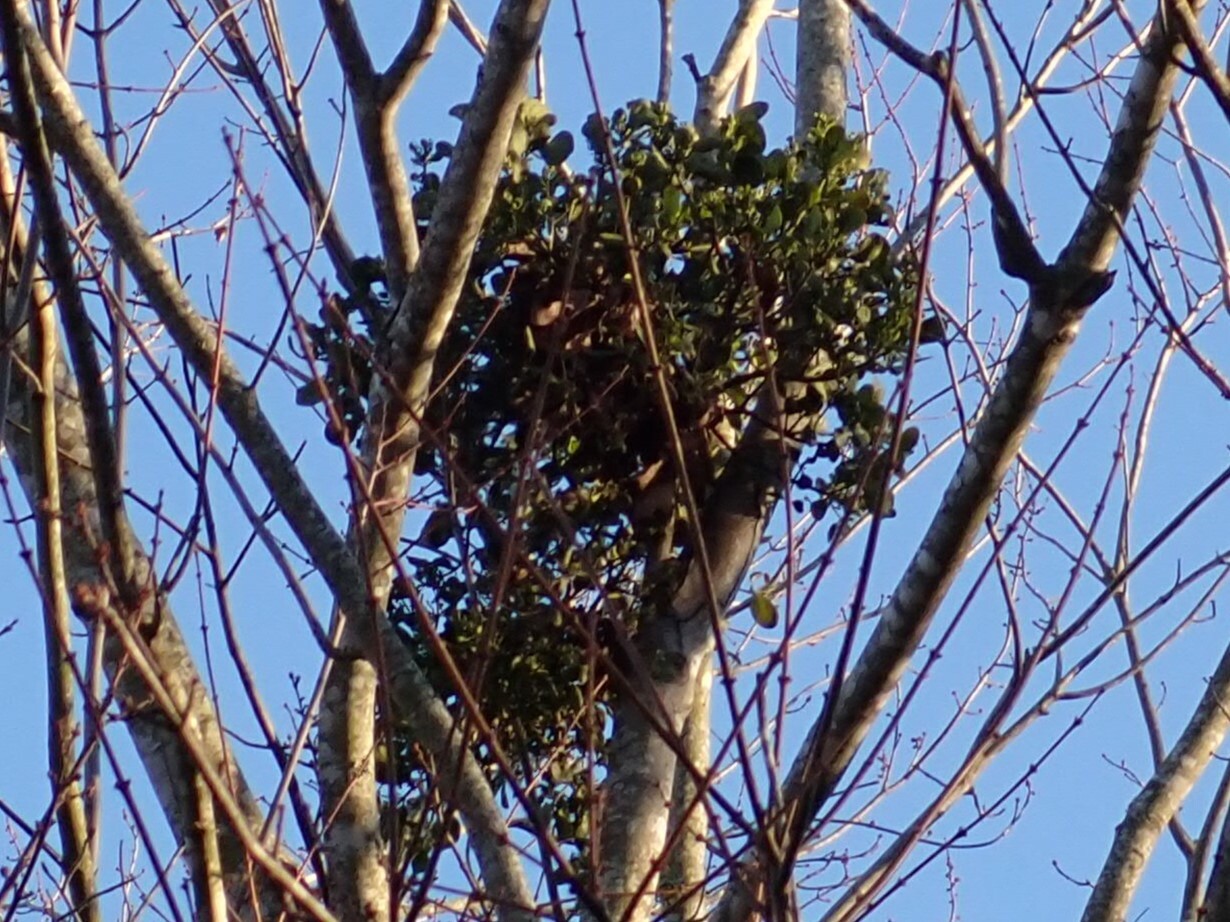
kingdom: Plantae
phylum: Tracheophyta
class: Magnoliopsida
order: Santalales
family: Viscaceae
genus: Phoradendron
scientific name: Phoradendron leucarpum
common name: Pacific mistletoe
